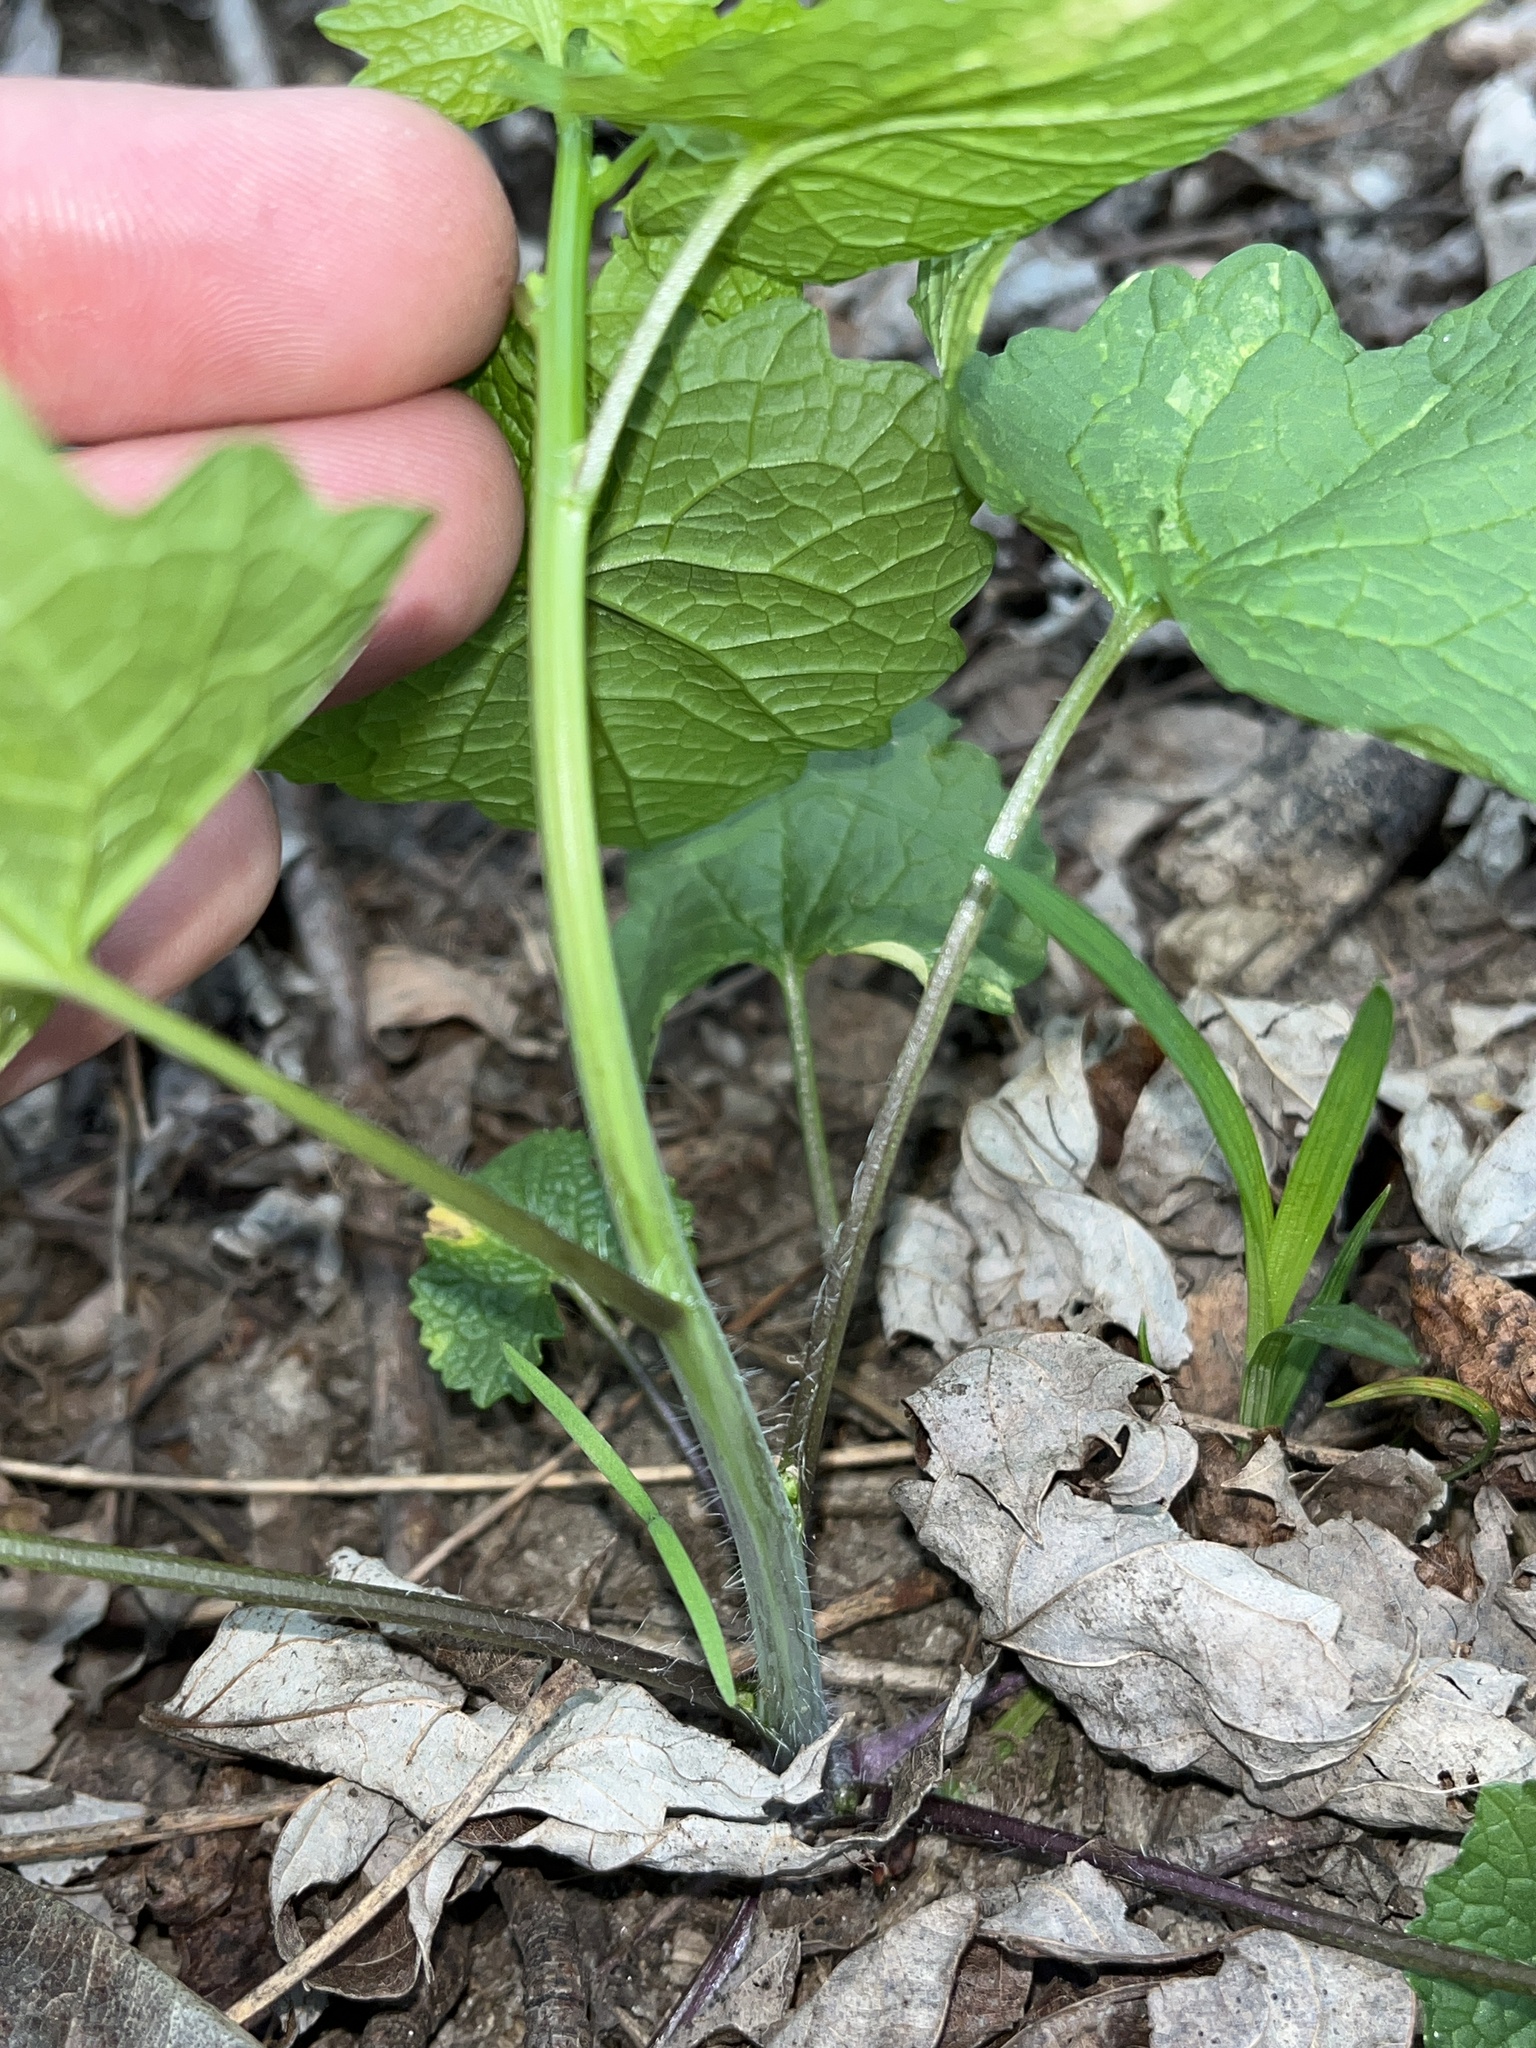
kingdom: Plantae
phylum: Tracheophyta
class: Magnoliopsida
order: Brassicales
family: Brassicaceae
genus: Alliaria
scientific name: Alliaria petiolata
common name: Garlic mustard
